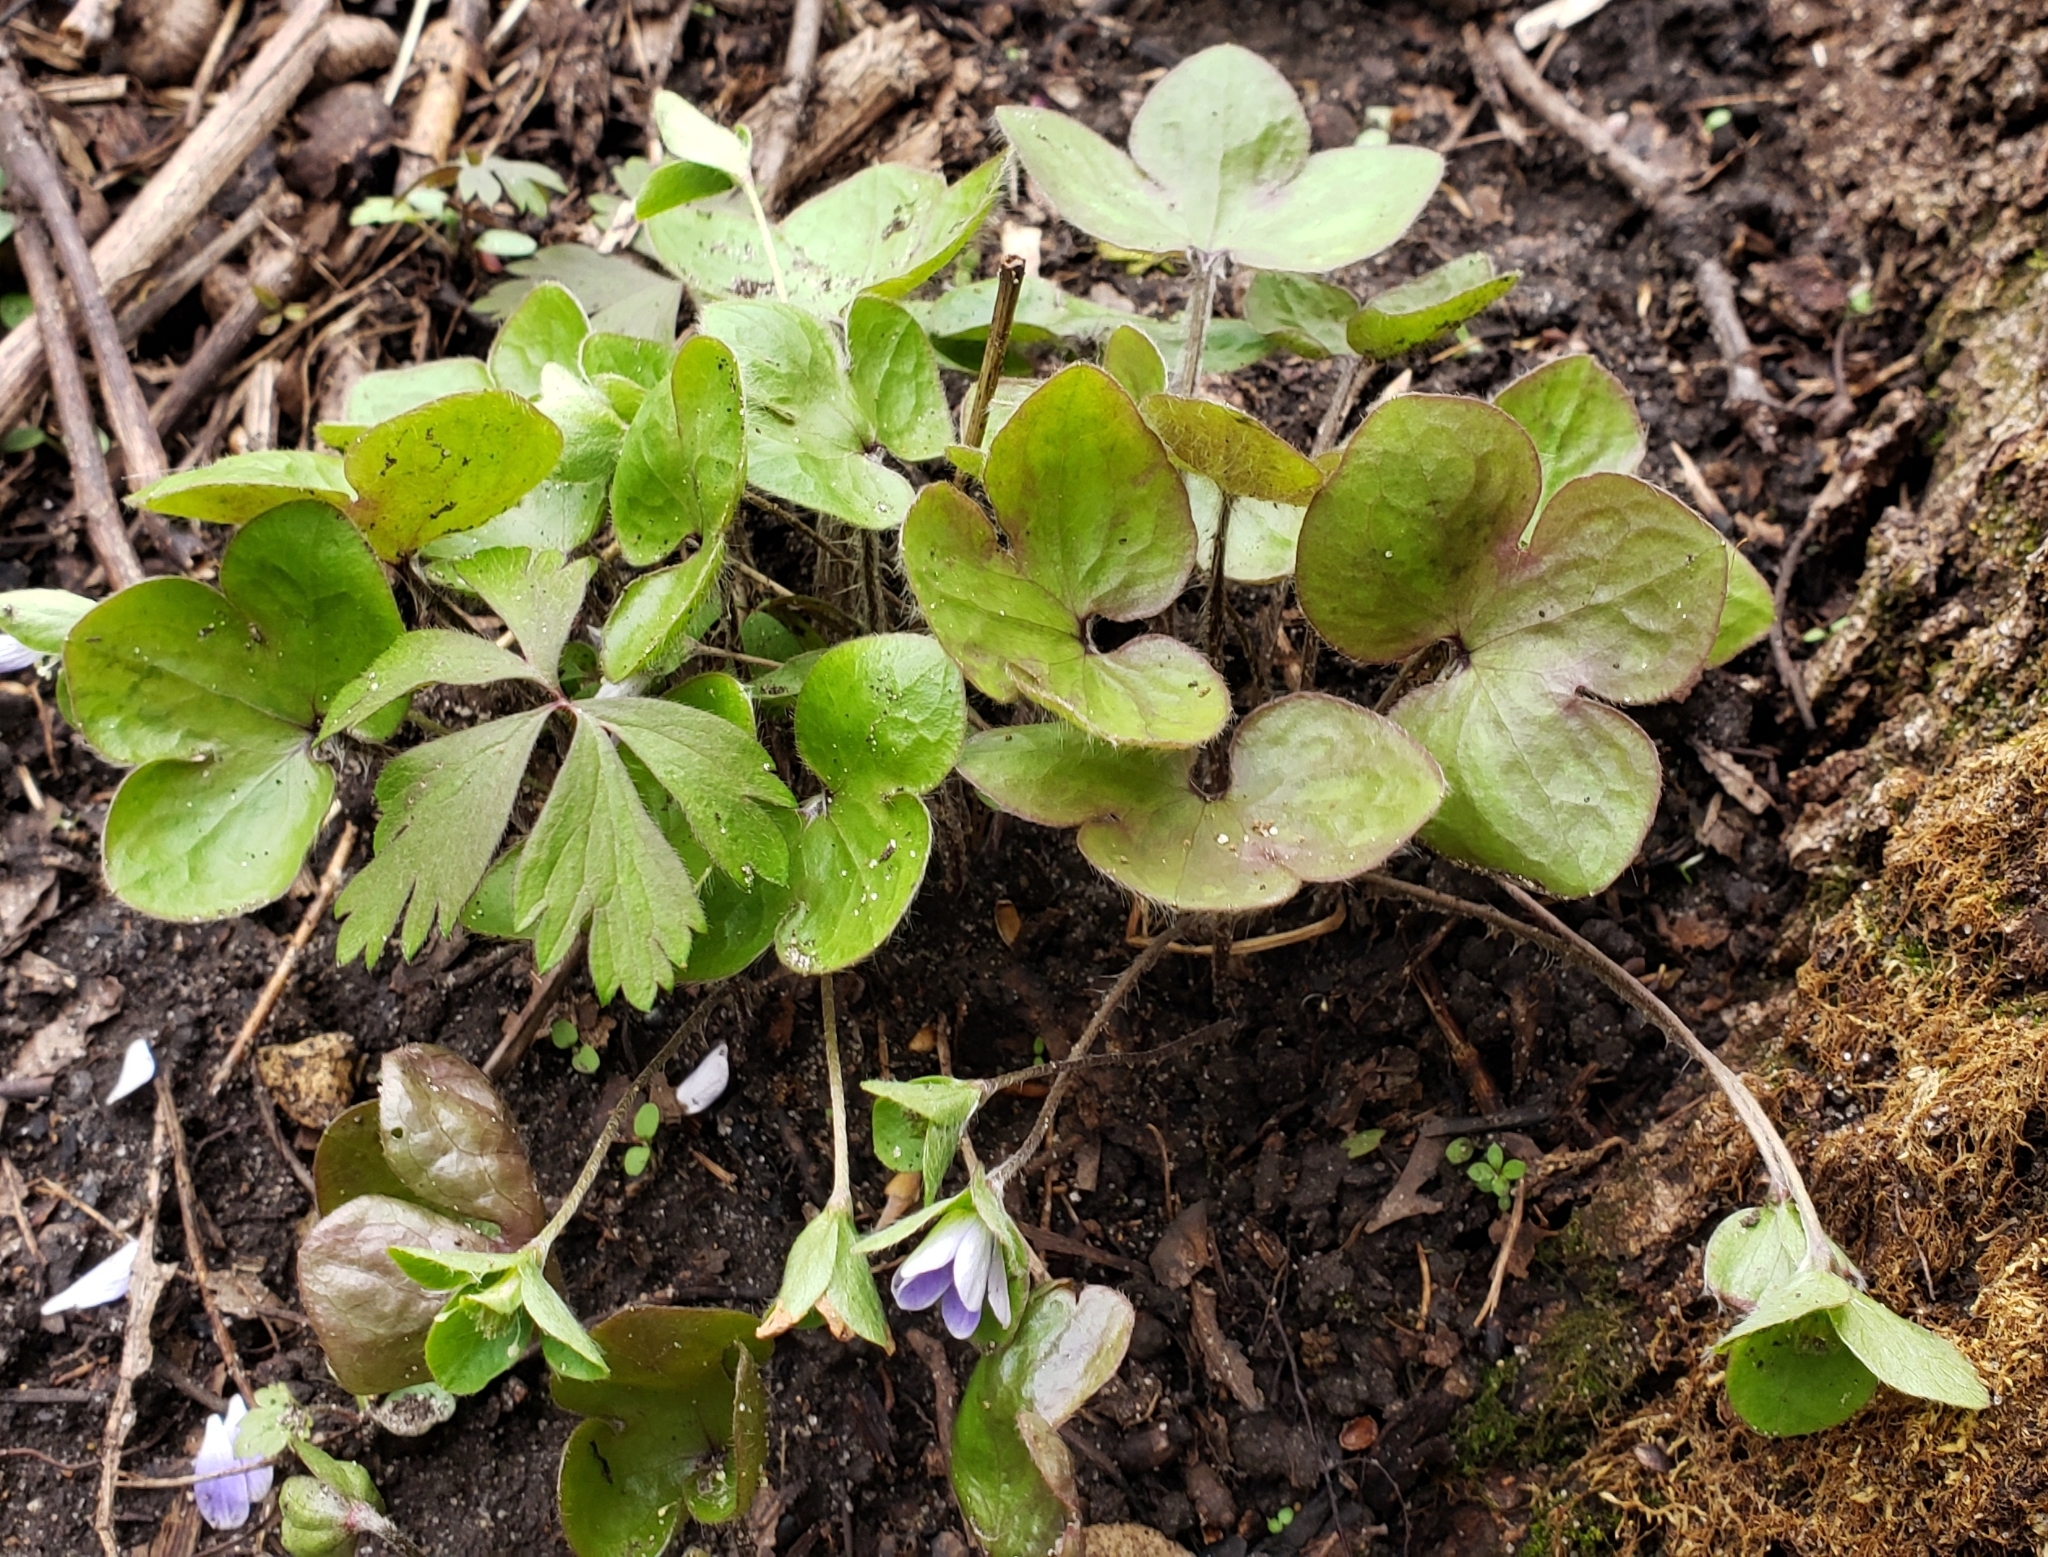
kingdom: Plantae
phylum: Tracheophyta
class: Magnoliopsida
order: Ranunculales
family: Ranunculaceae
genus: Hepatica
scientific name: Hepatica americana
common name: American hepatica
